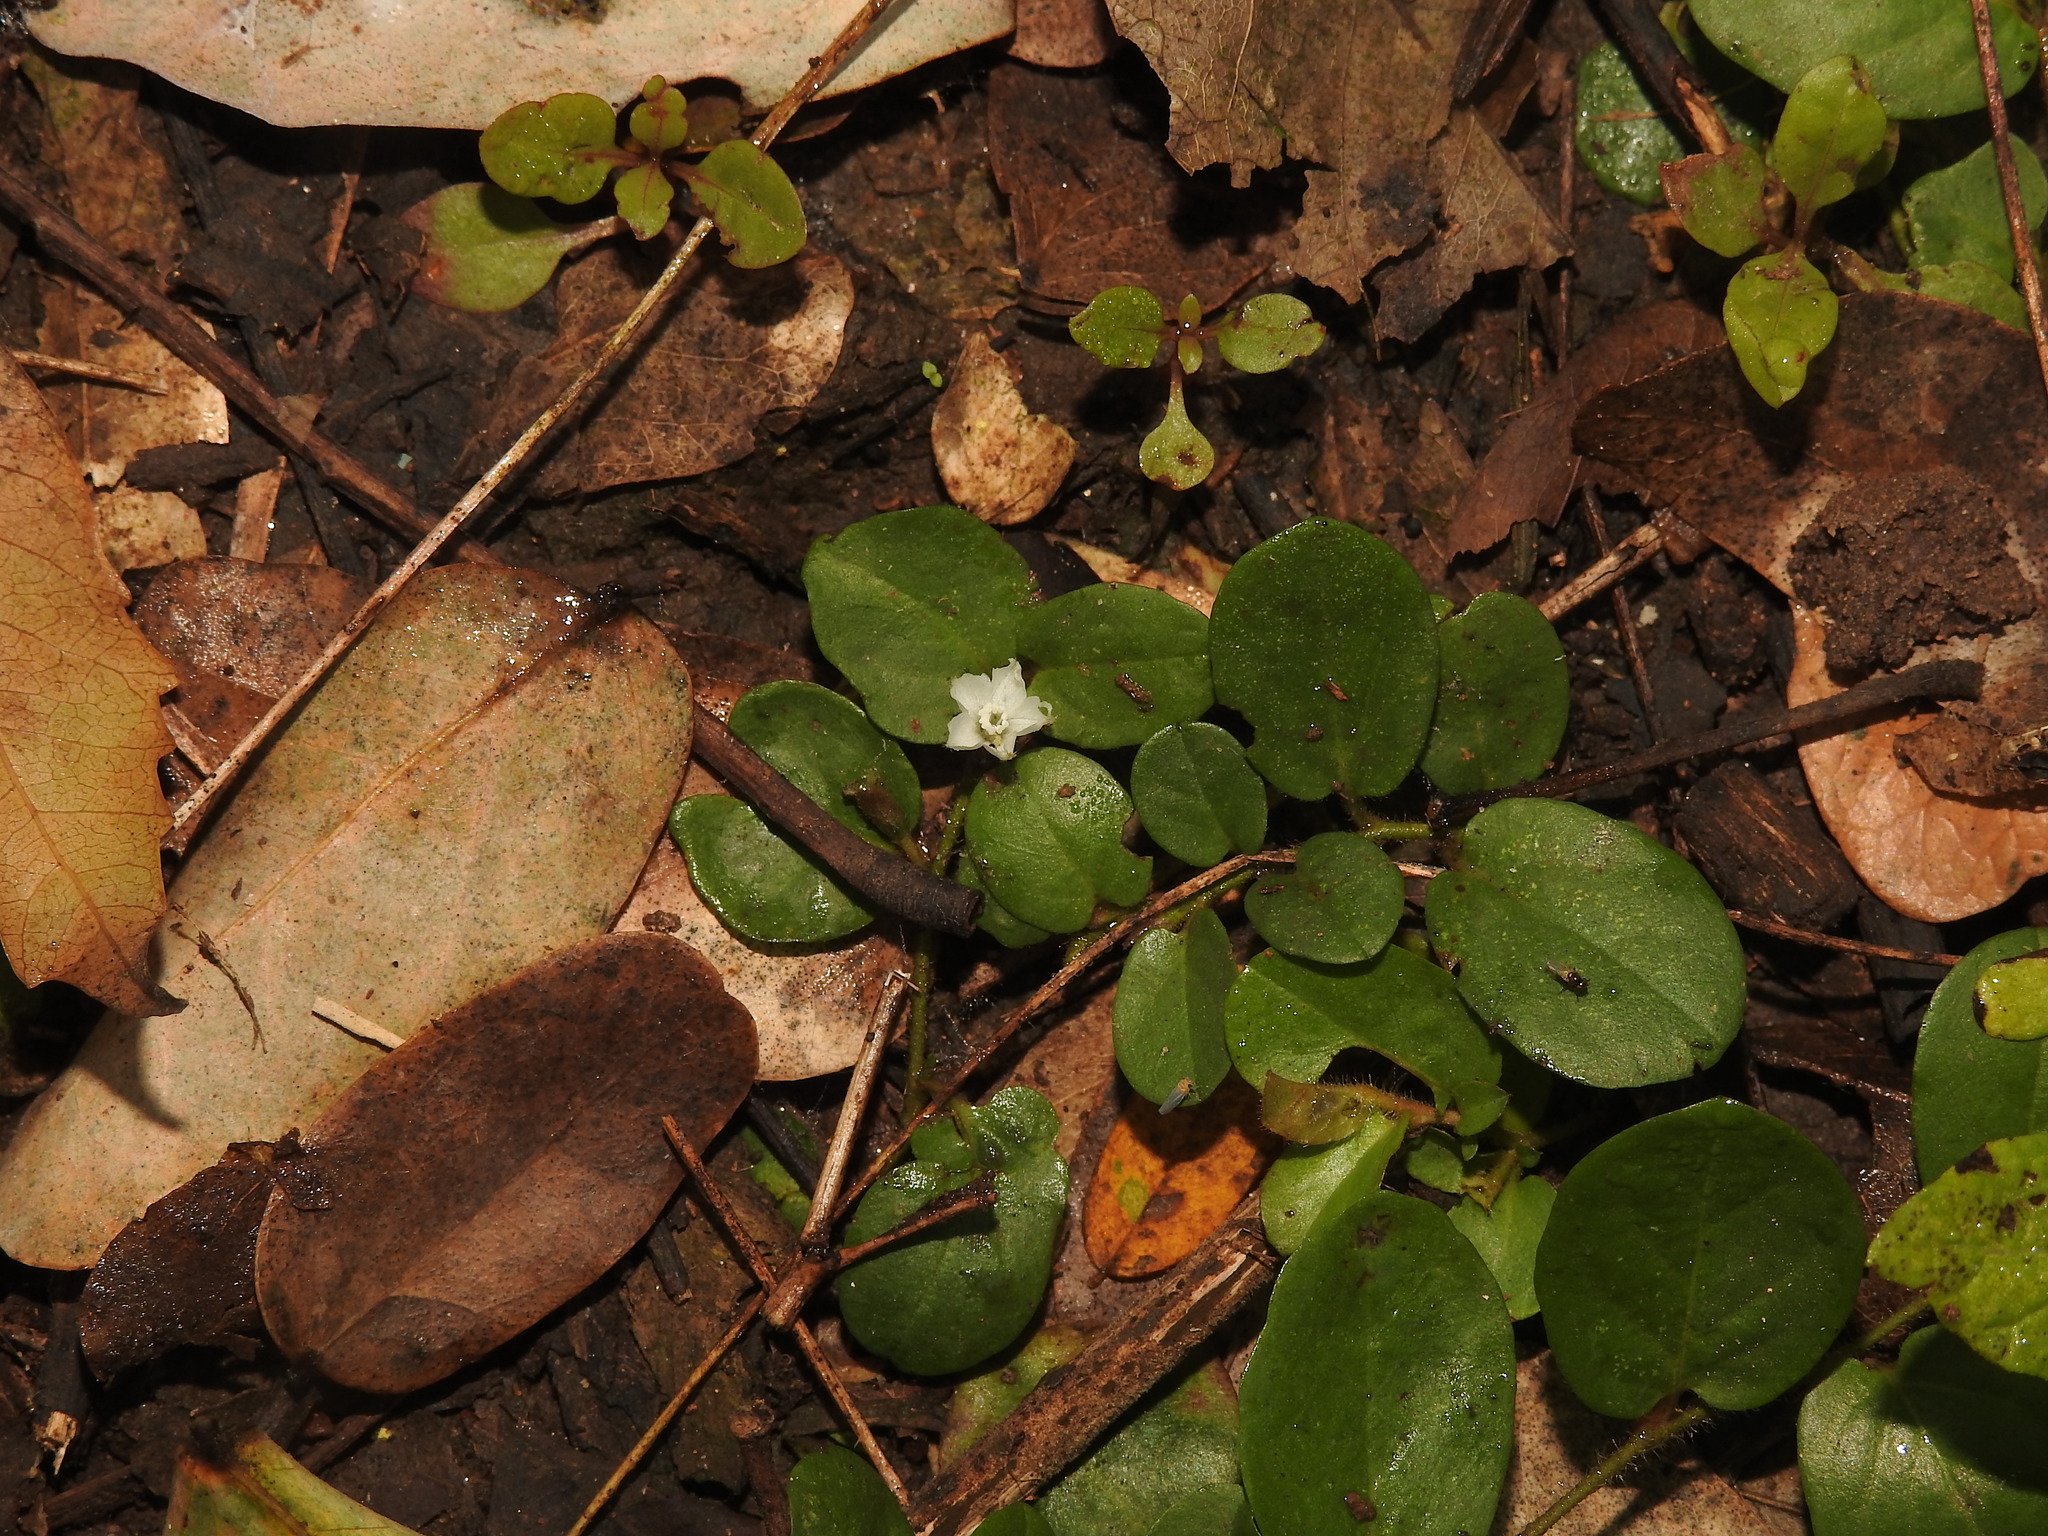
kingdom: Plantae
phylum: Tracheophyta
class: Magnoliopsida
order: Solanales
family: Convolvulaceae
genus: Evolvulus
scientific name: Evolvulus nummularius
